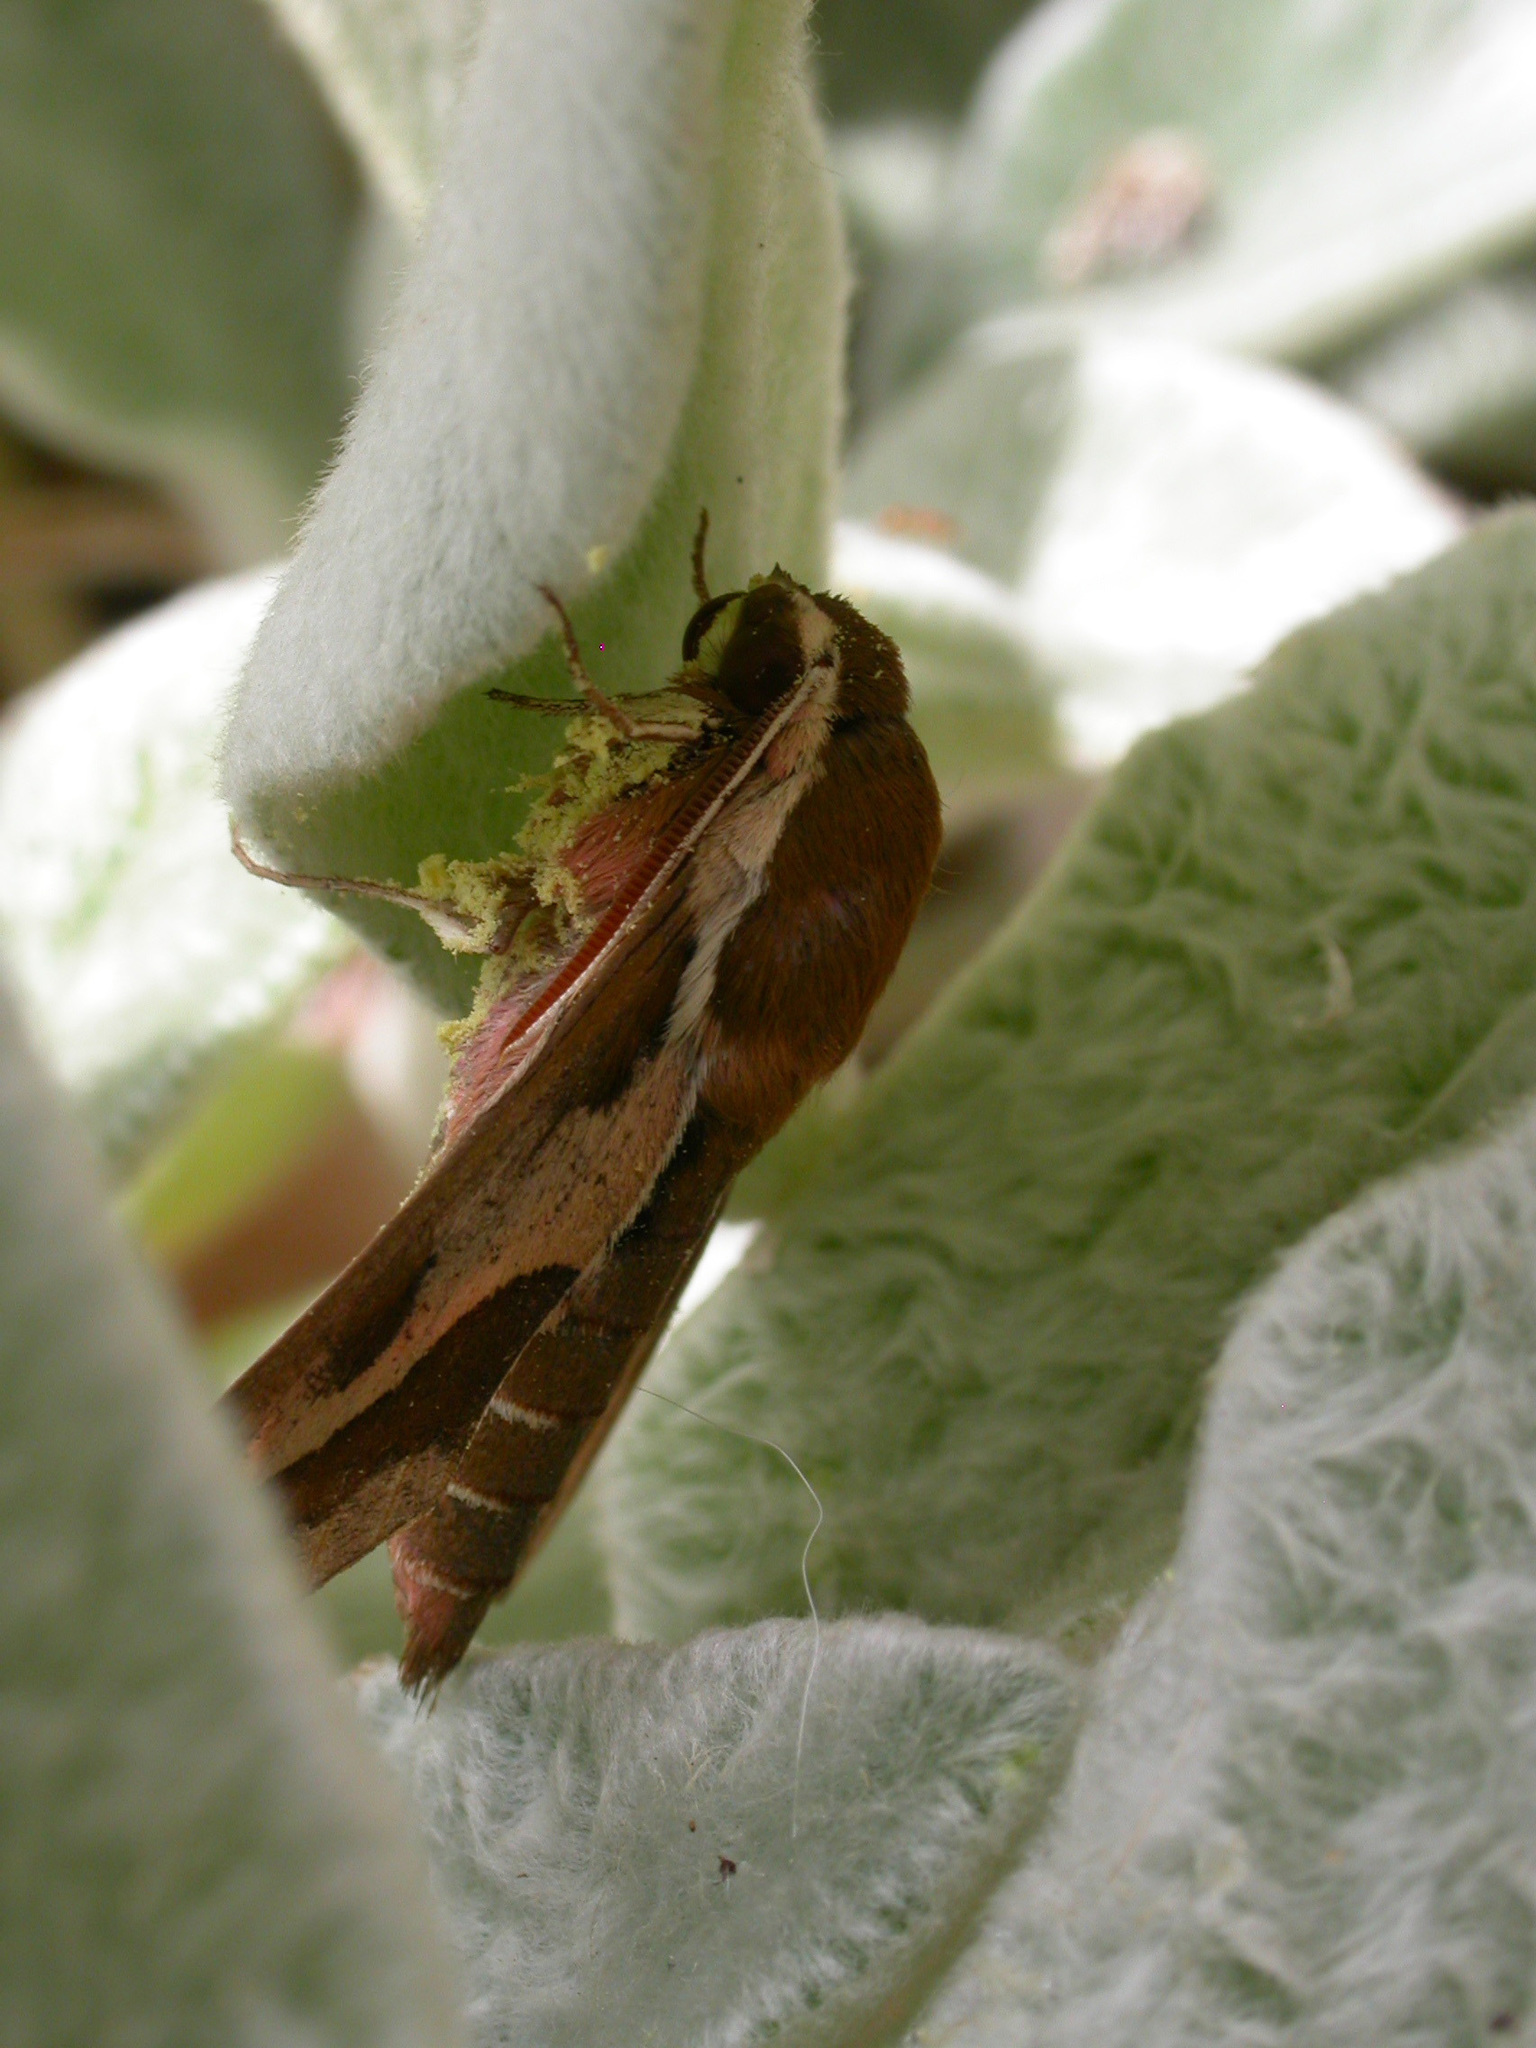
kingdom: Animalia
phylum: Arthropoda
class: Insecta
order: Lepidoptera
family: Sphingidae
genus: Hyles
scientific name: Hyles euphorbiae
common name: Spurge hawk-moth
